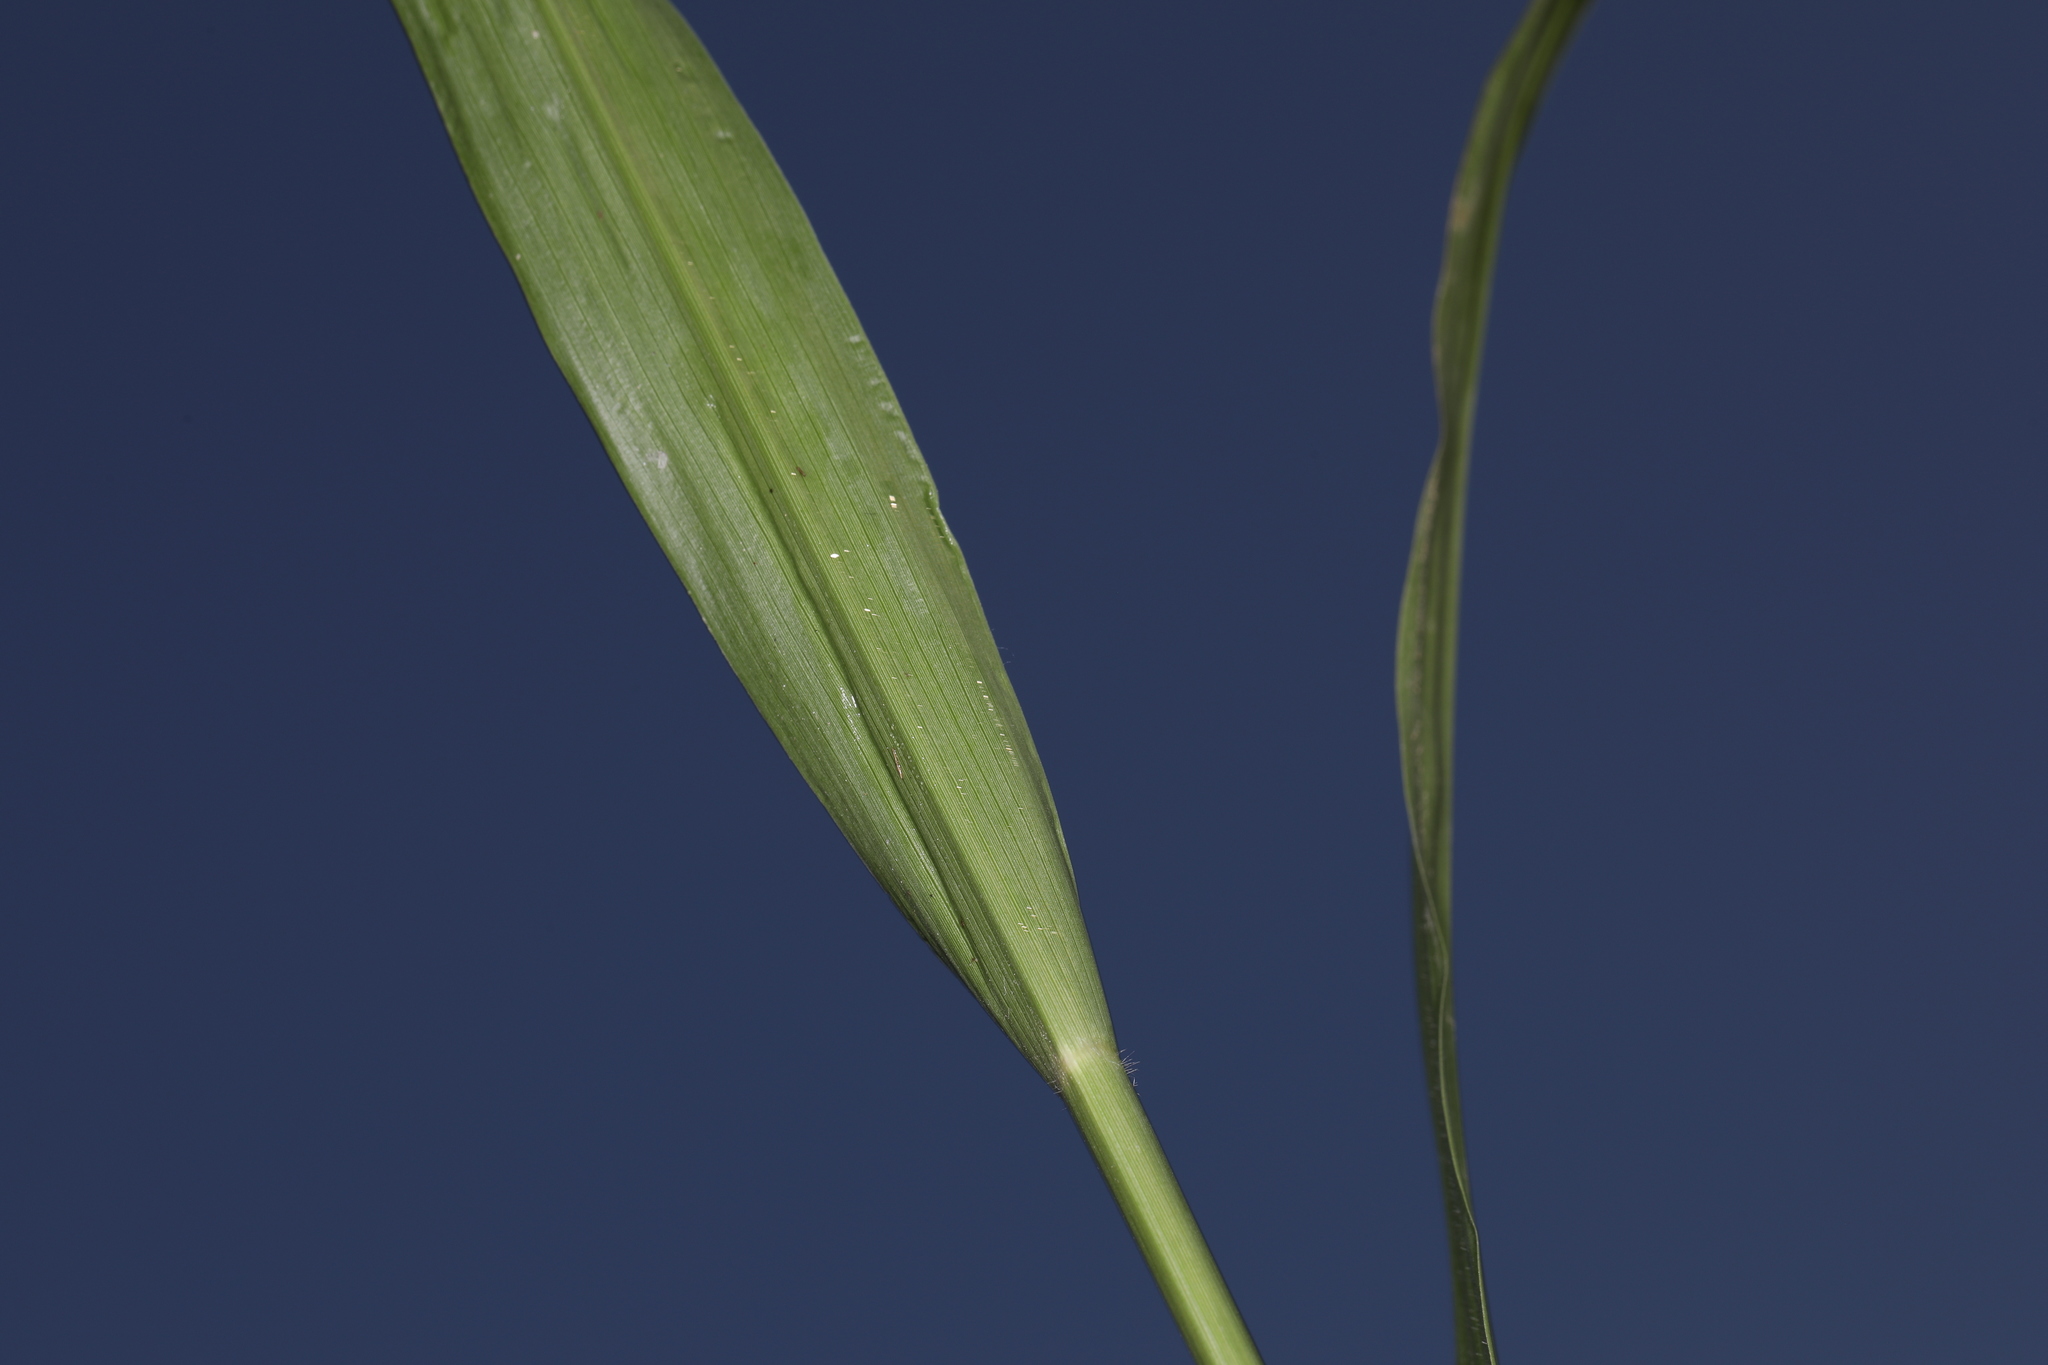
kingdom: Plantae
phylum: Tracheophyta
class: Liliopsida
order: Poales
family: Poaceae
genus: Coleataenia
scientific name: Coleataenia anceps
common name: Beaked panic grass
